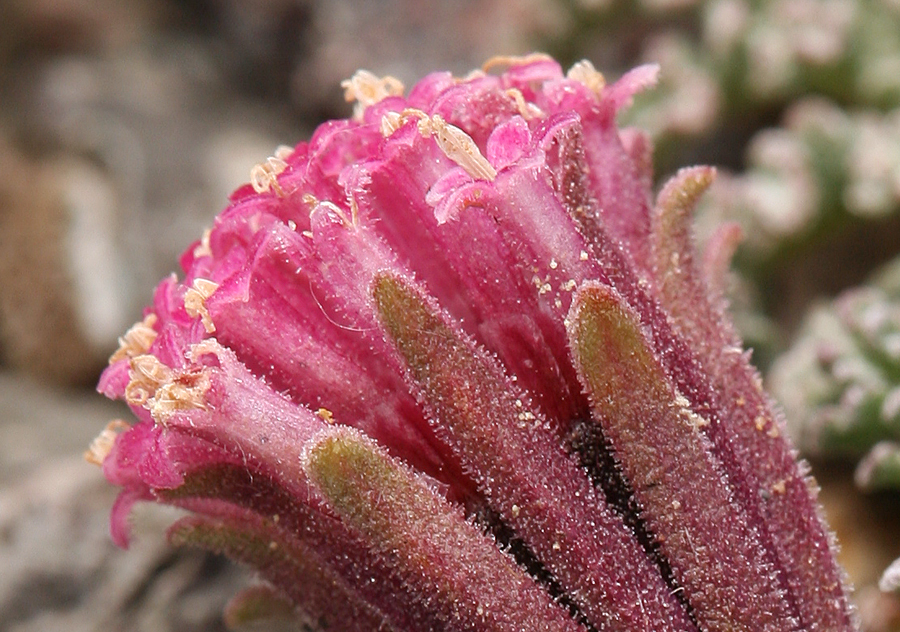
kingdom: Plantae
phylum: Tracheophyta
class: Magnoliopsida
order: Asterales
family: Asteraceae
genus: Chaenactis
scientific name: Chaenactis douglasii
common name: Hoary pincushion
